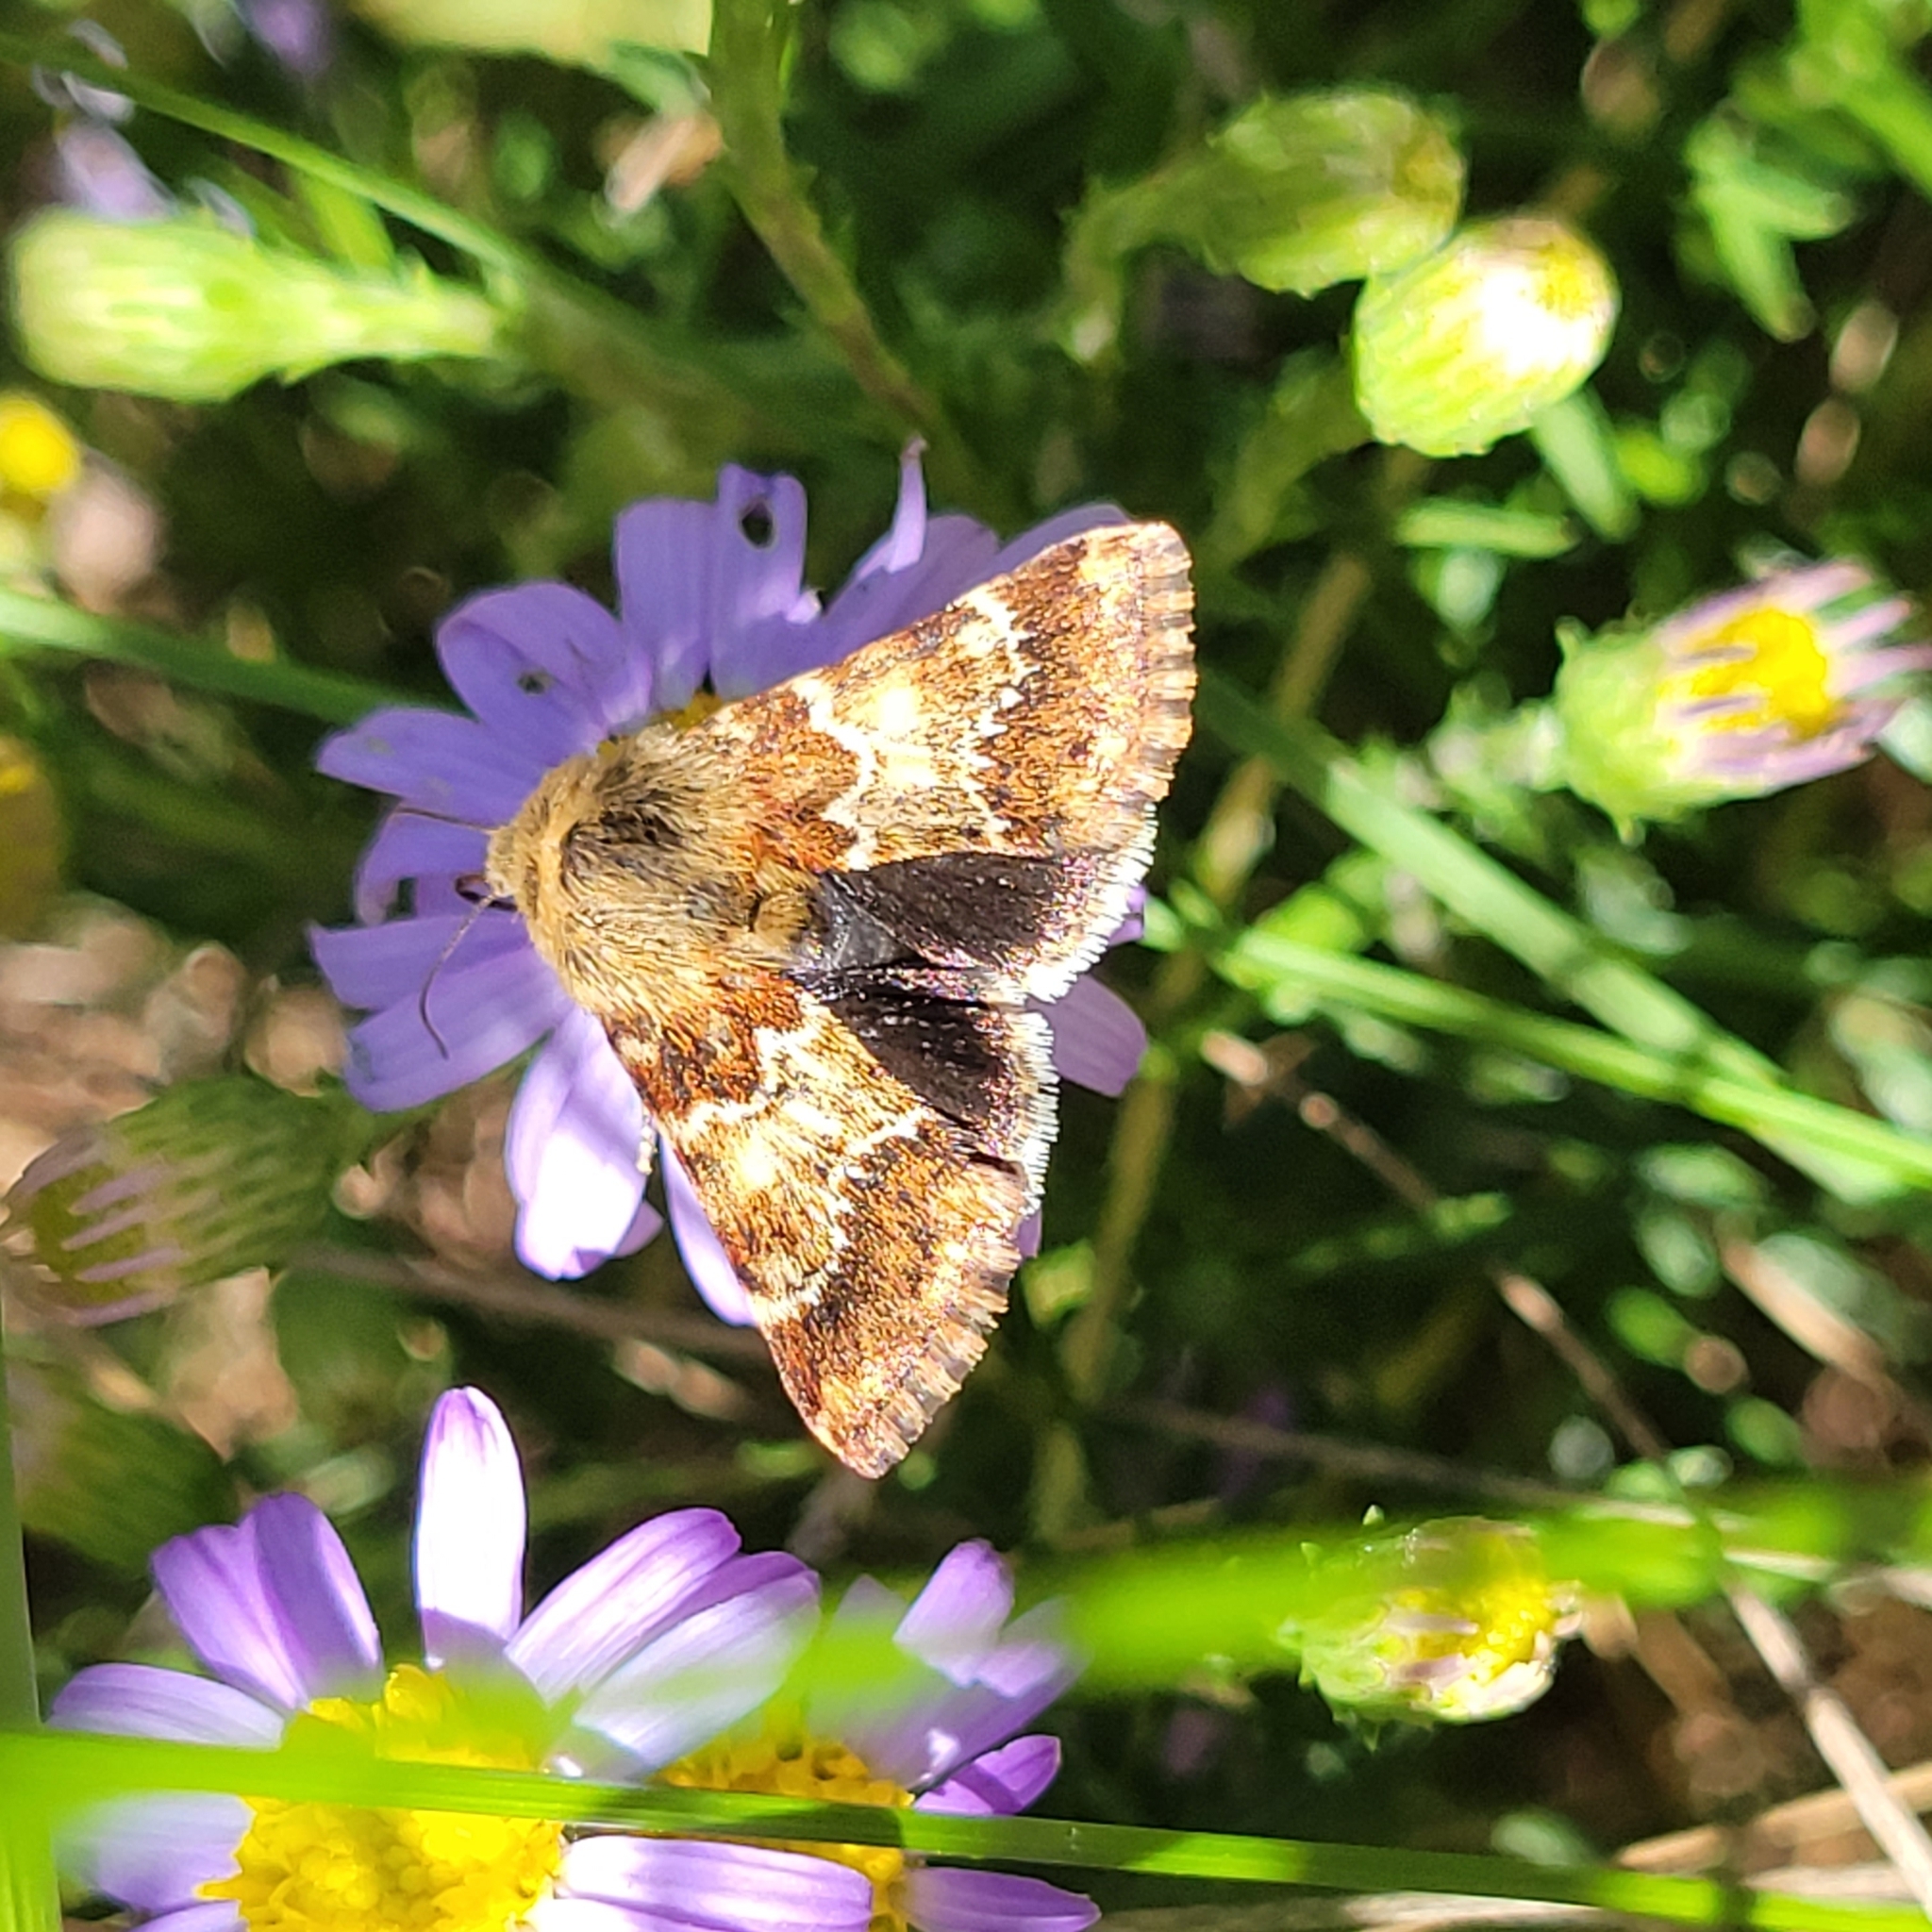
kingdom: Animalia
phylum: Arthropoda
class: Insecta
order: Lepidoptera
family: Noctuidae
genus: Schinia
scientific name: Schinia septentrionalis
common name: Northern flower moth
